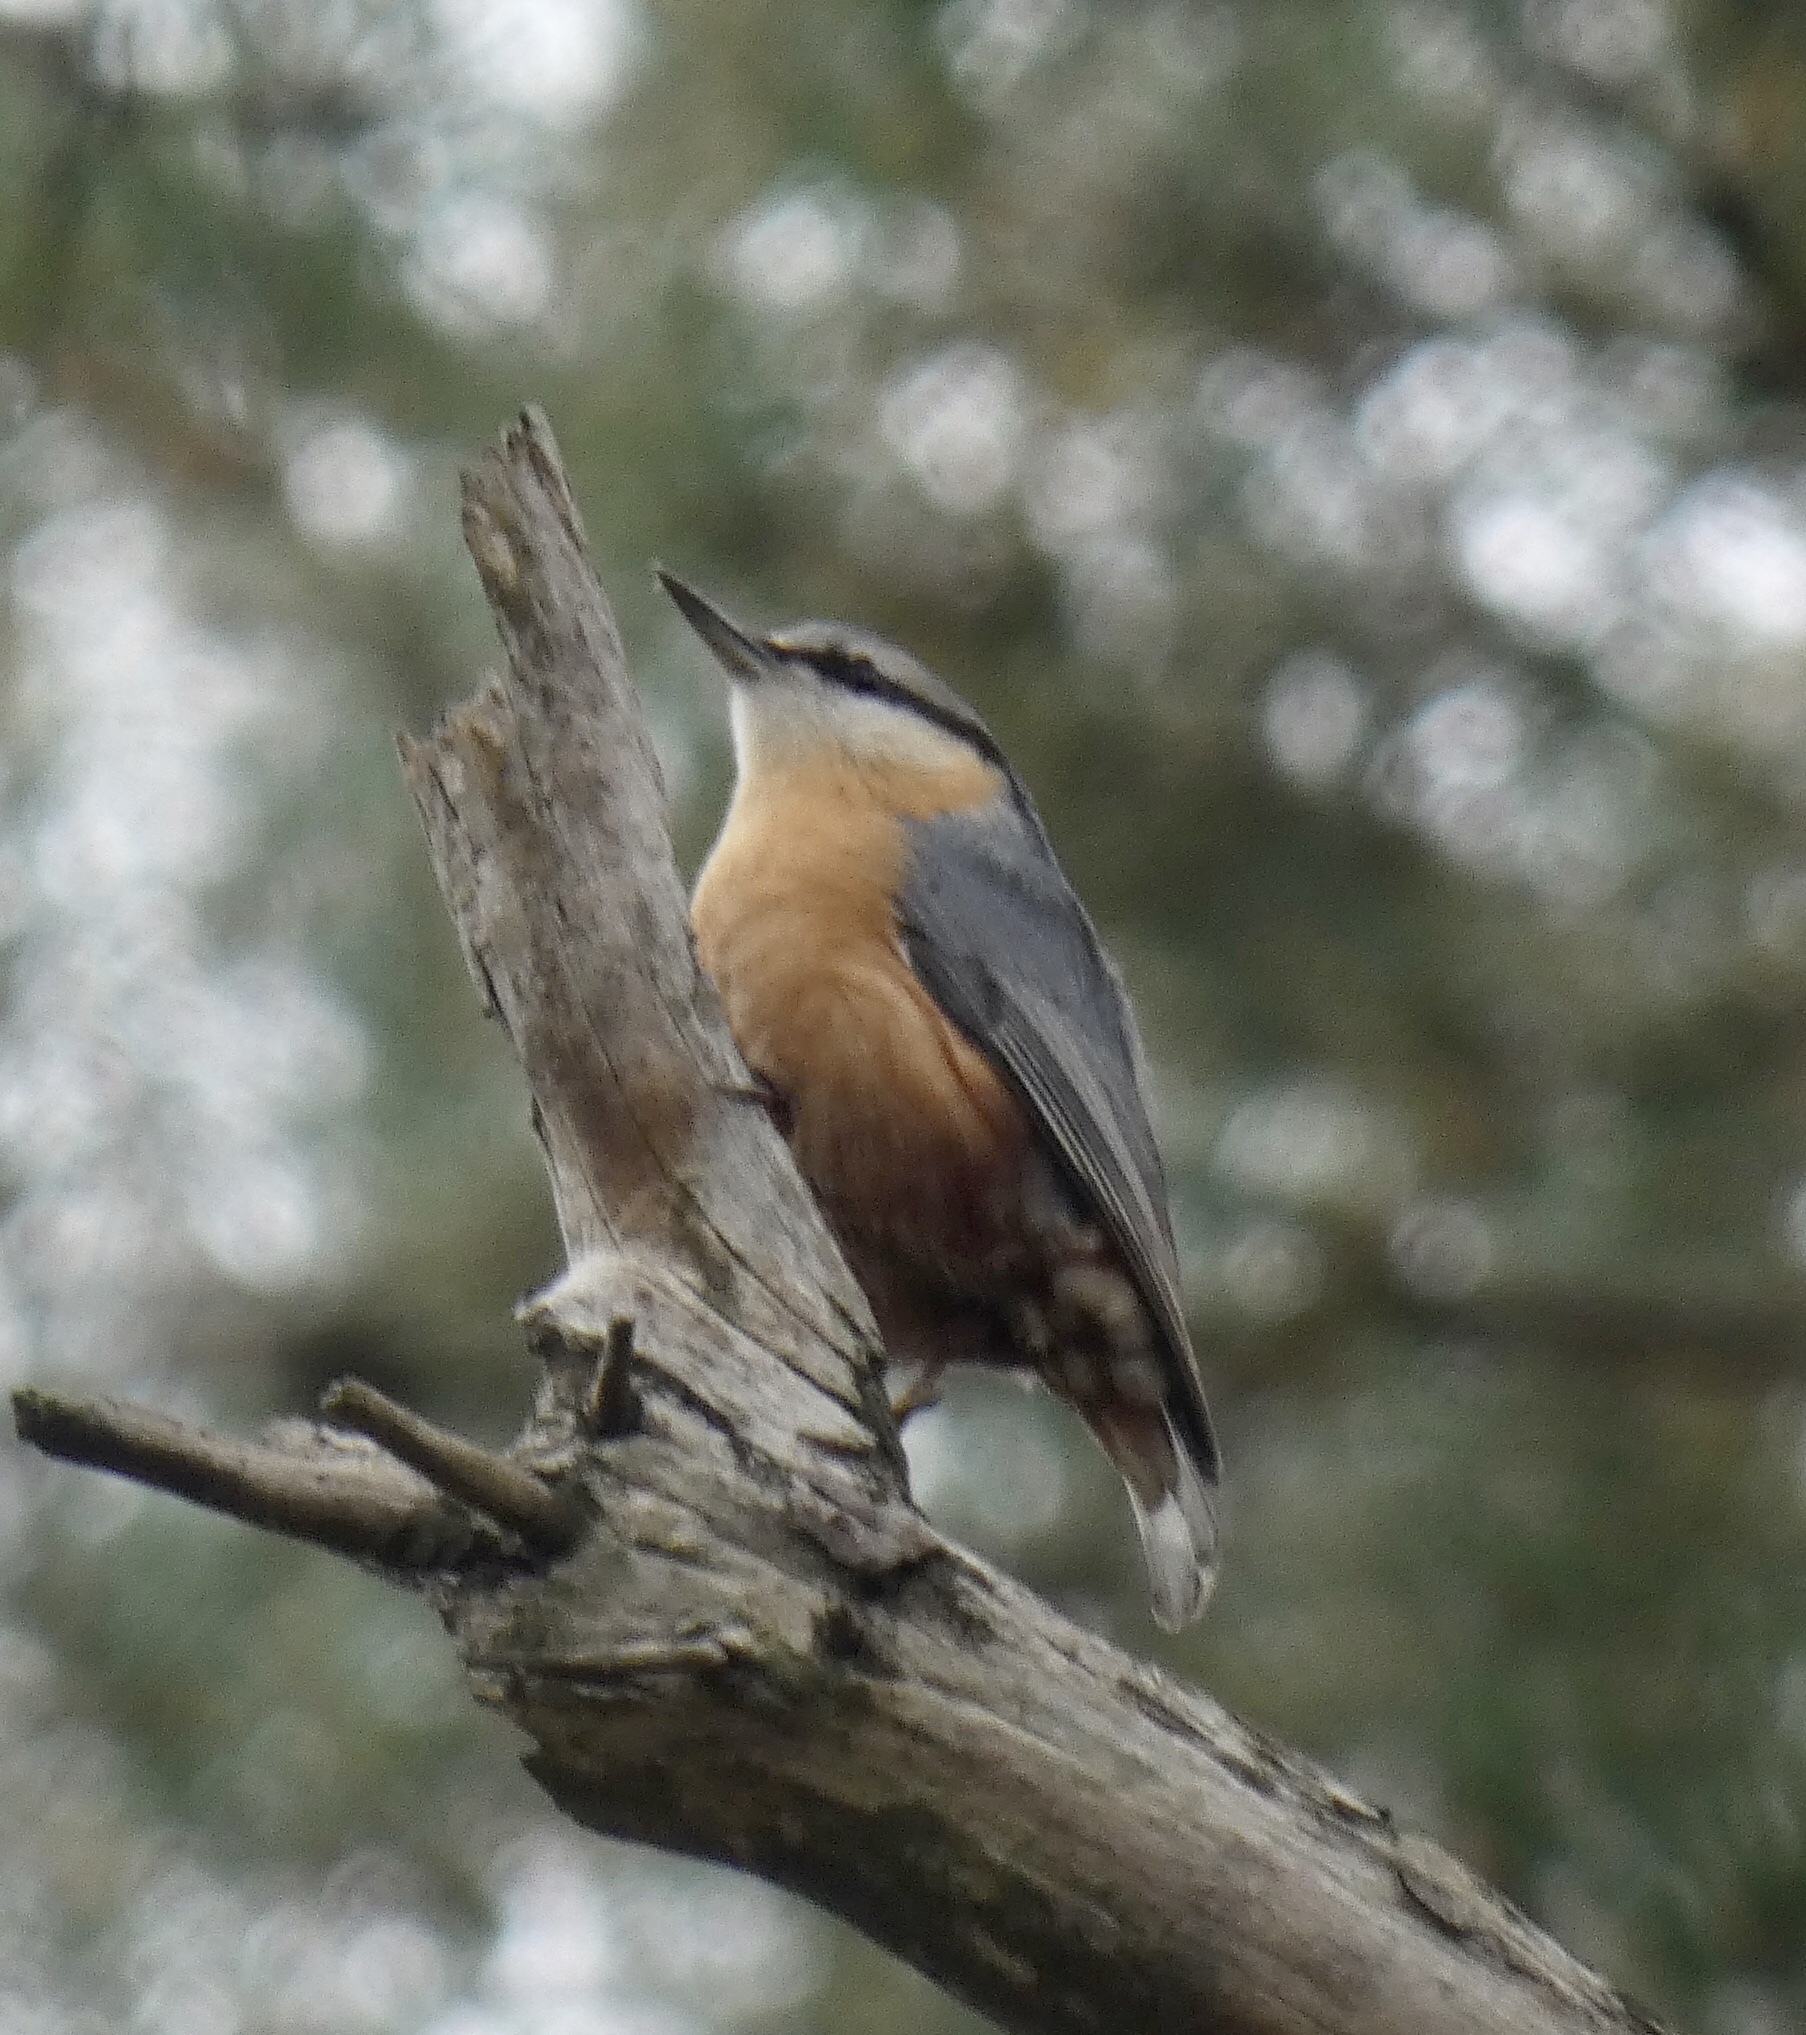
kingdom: Animalia
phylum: Chordata
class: Aves
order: Passeriformes
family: Sittidae
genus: Sitta
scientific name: Sitta europaea
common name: Eurasian nuthatch
